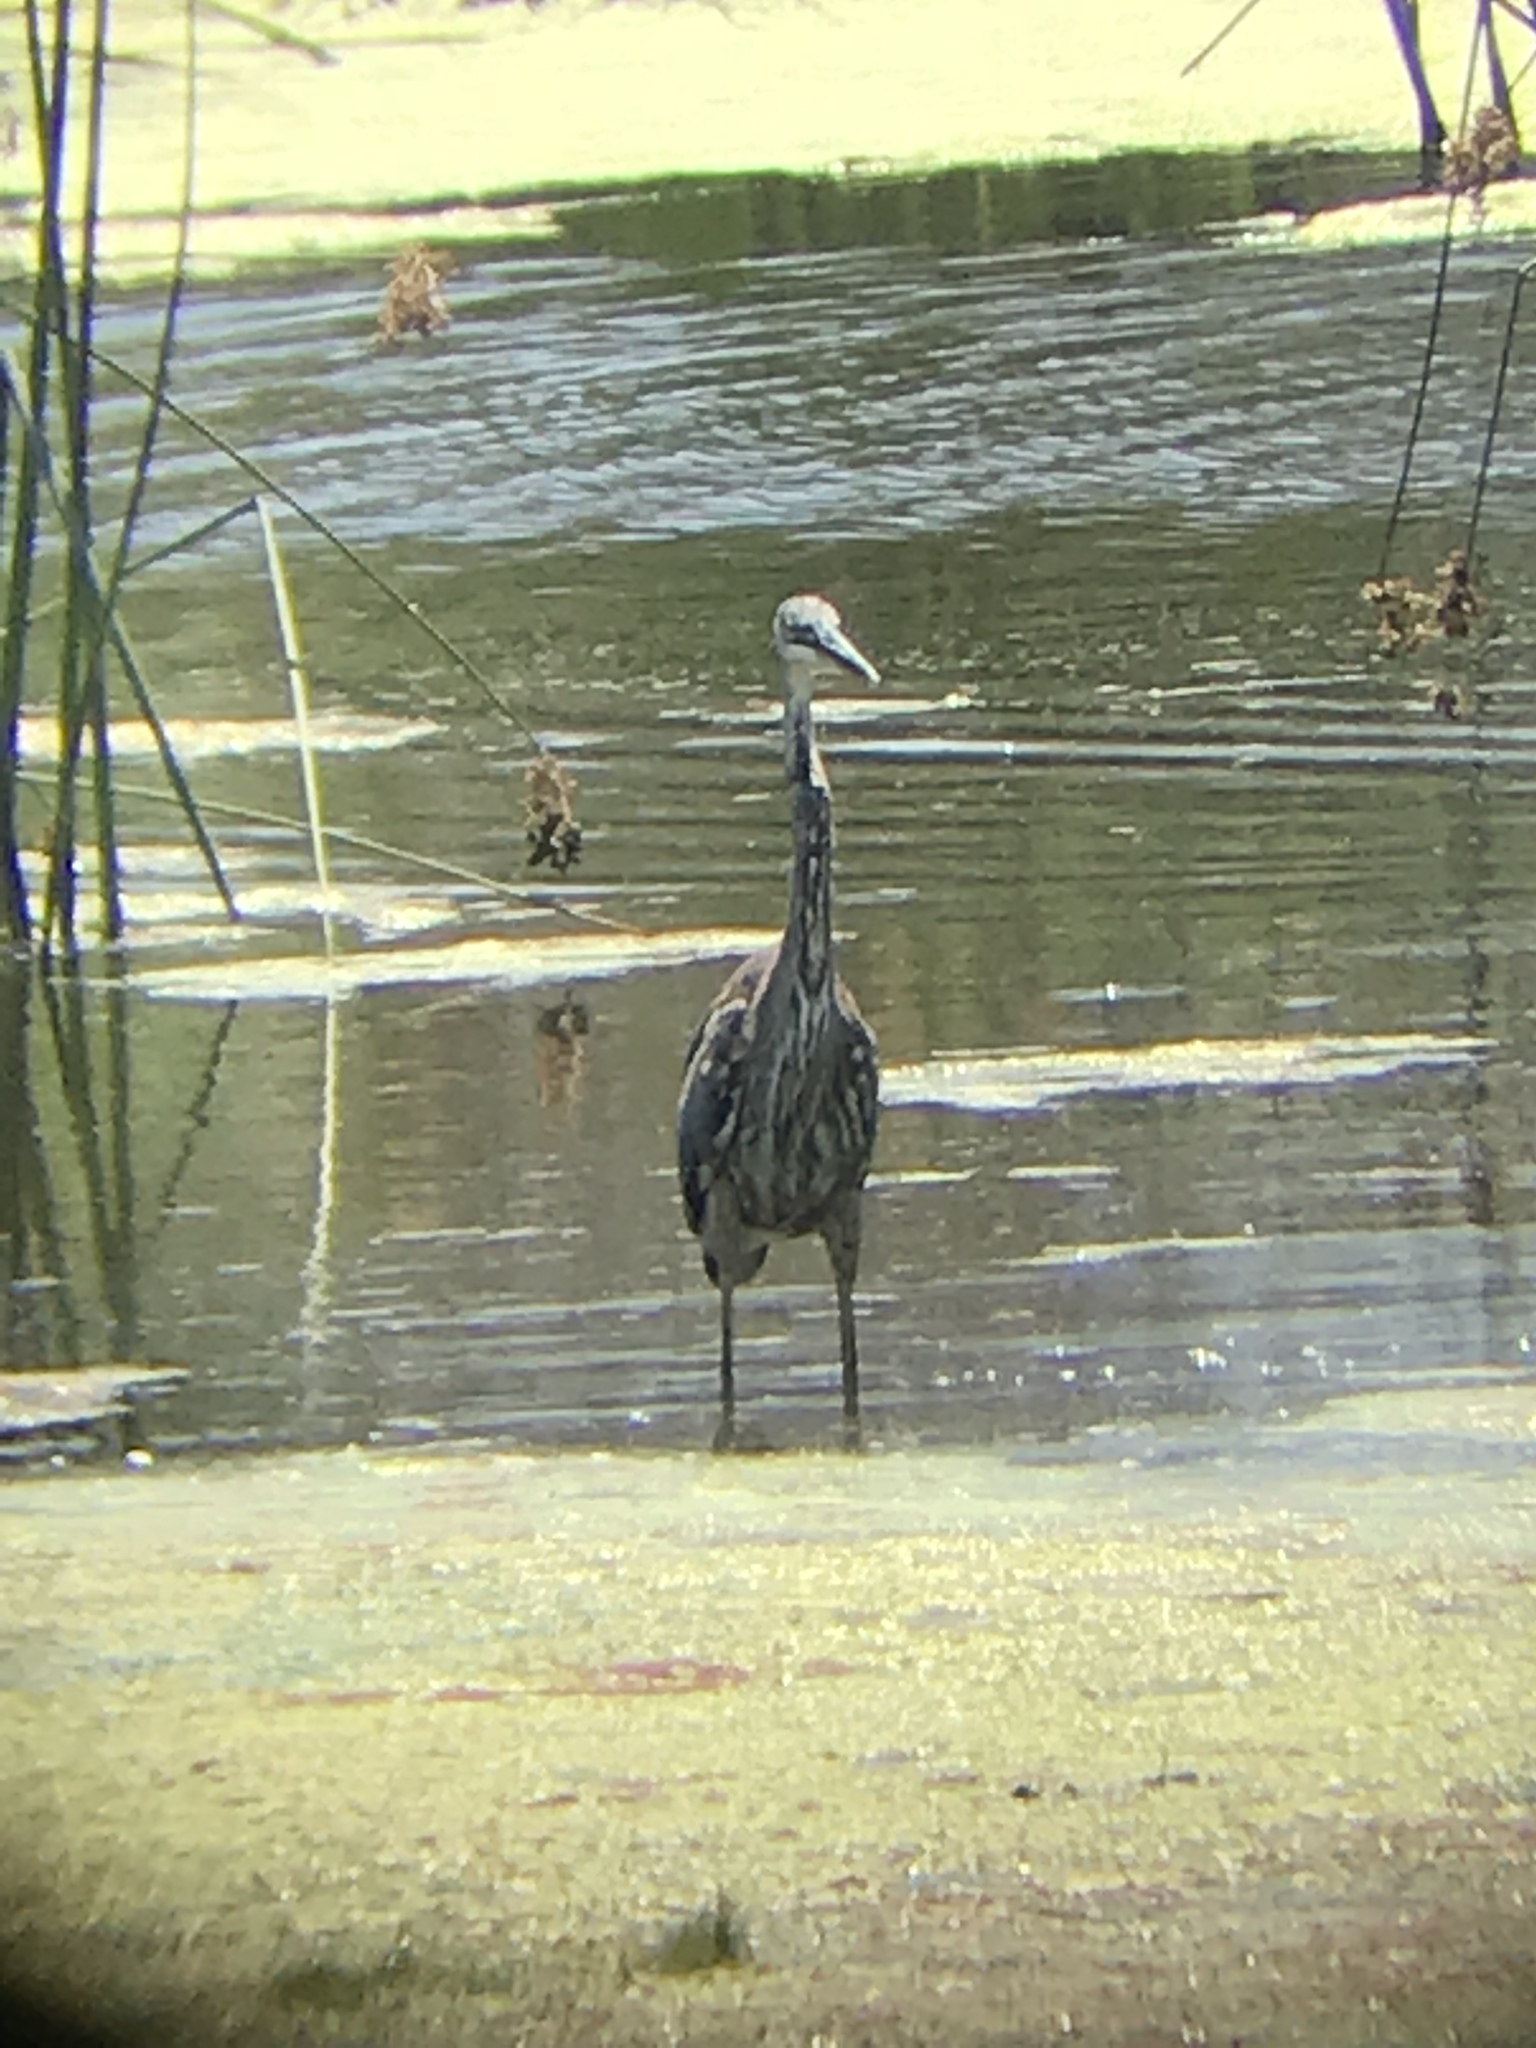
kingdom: Animalia
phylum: Chordata
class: Aves
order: Pelecaniformes
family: Ardeidae
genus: Ardea
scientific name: Ardea herodias
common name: Great blue heron
